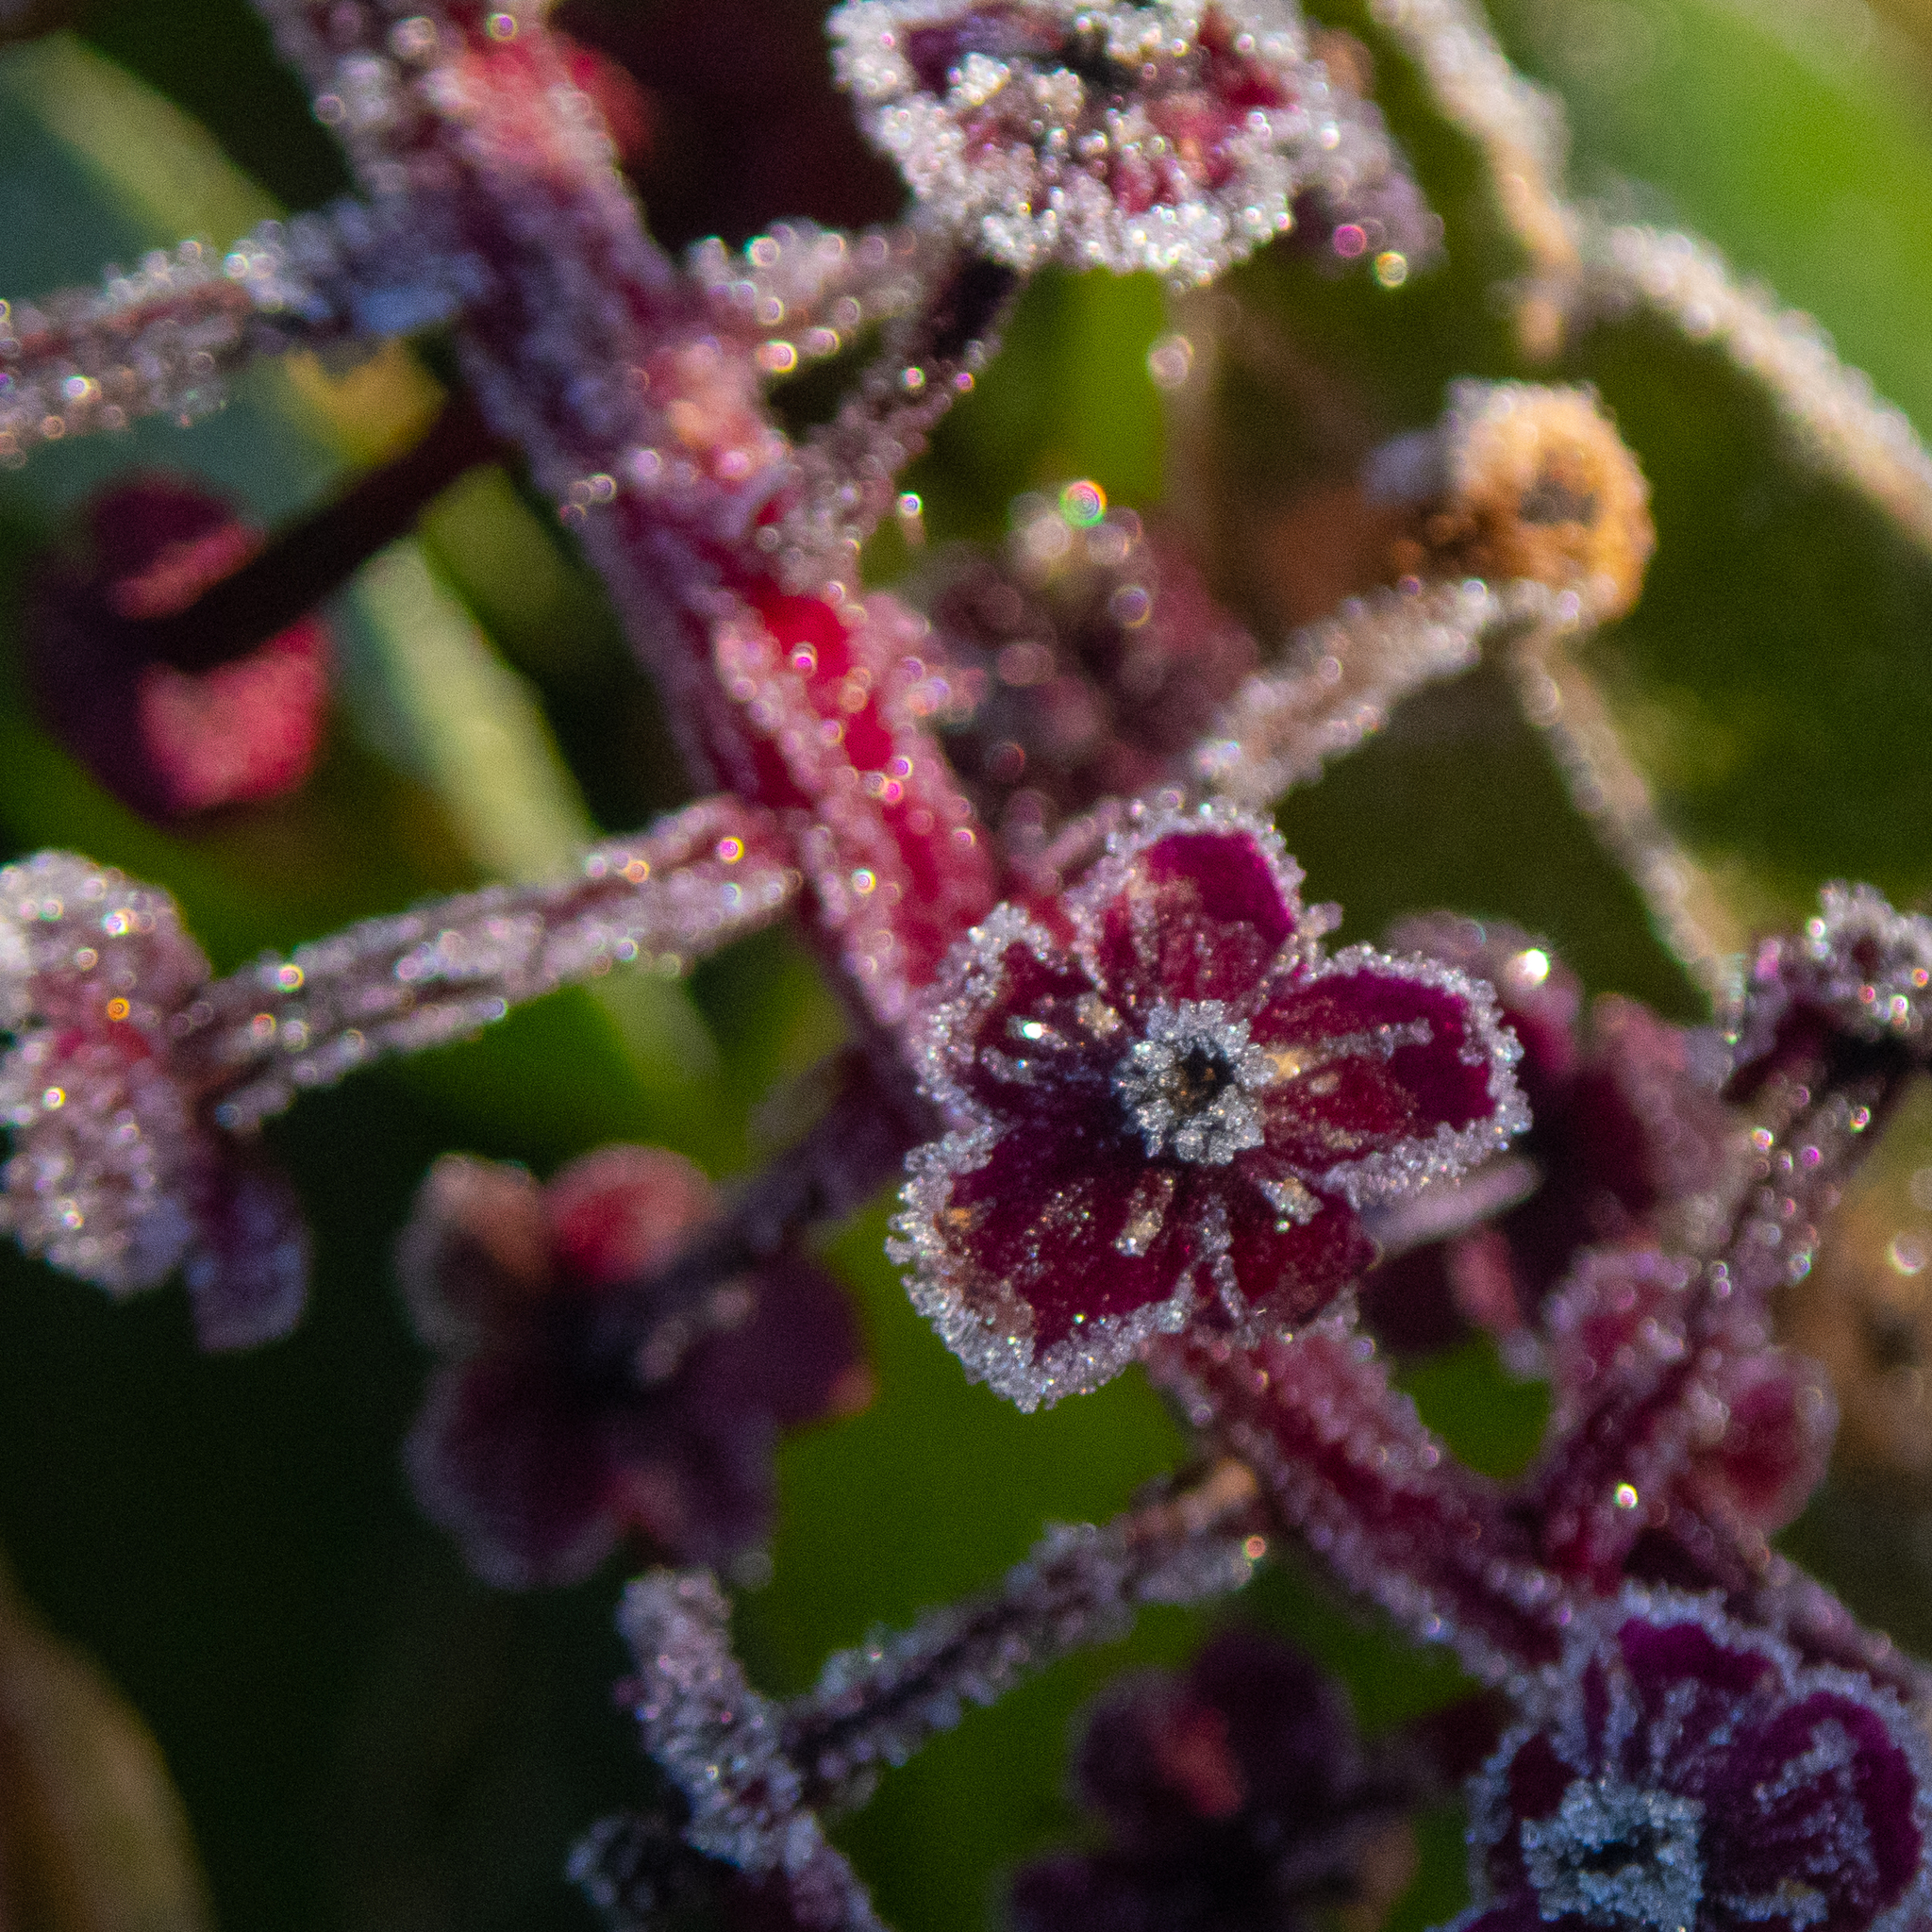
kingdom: Plantae
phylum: Tracheophyta
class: Magnoliopsida
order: Caryophyllales
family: Phytolaccaceae
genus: Phytolacca
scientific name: Phytolacca americana
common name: American pokeweed
